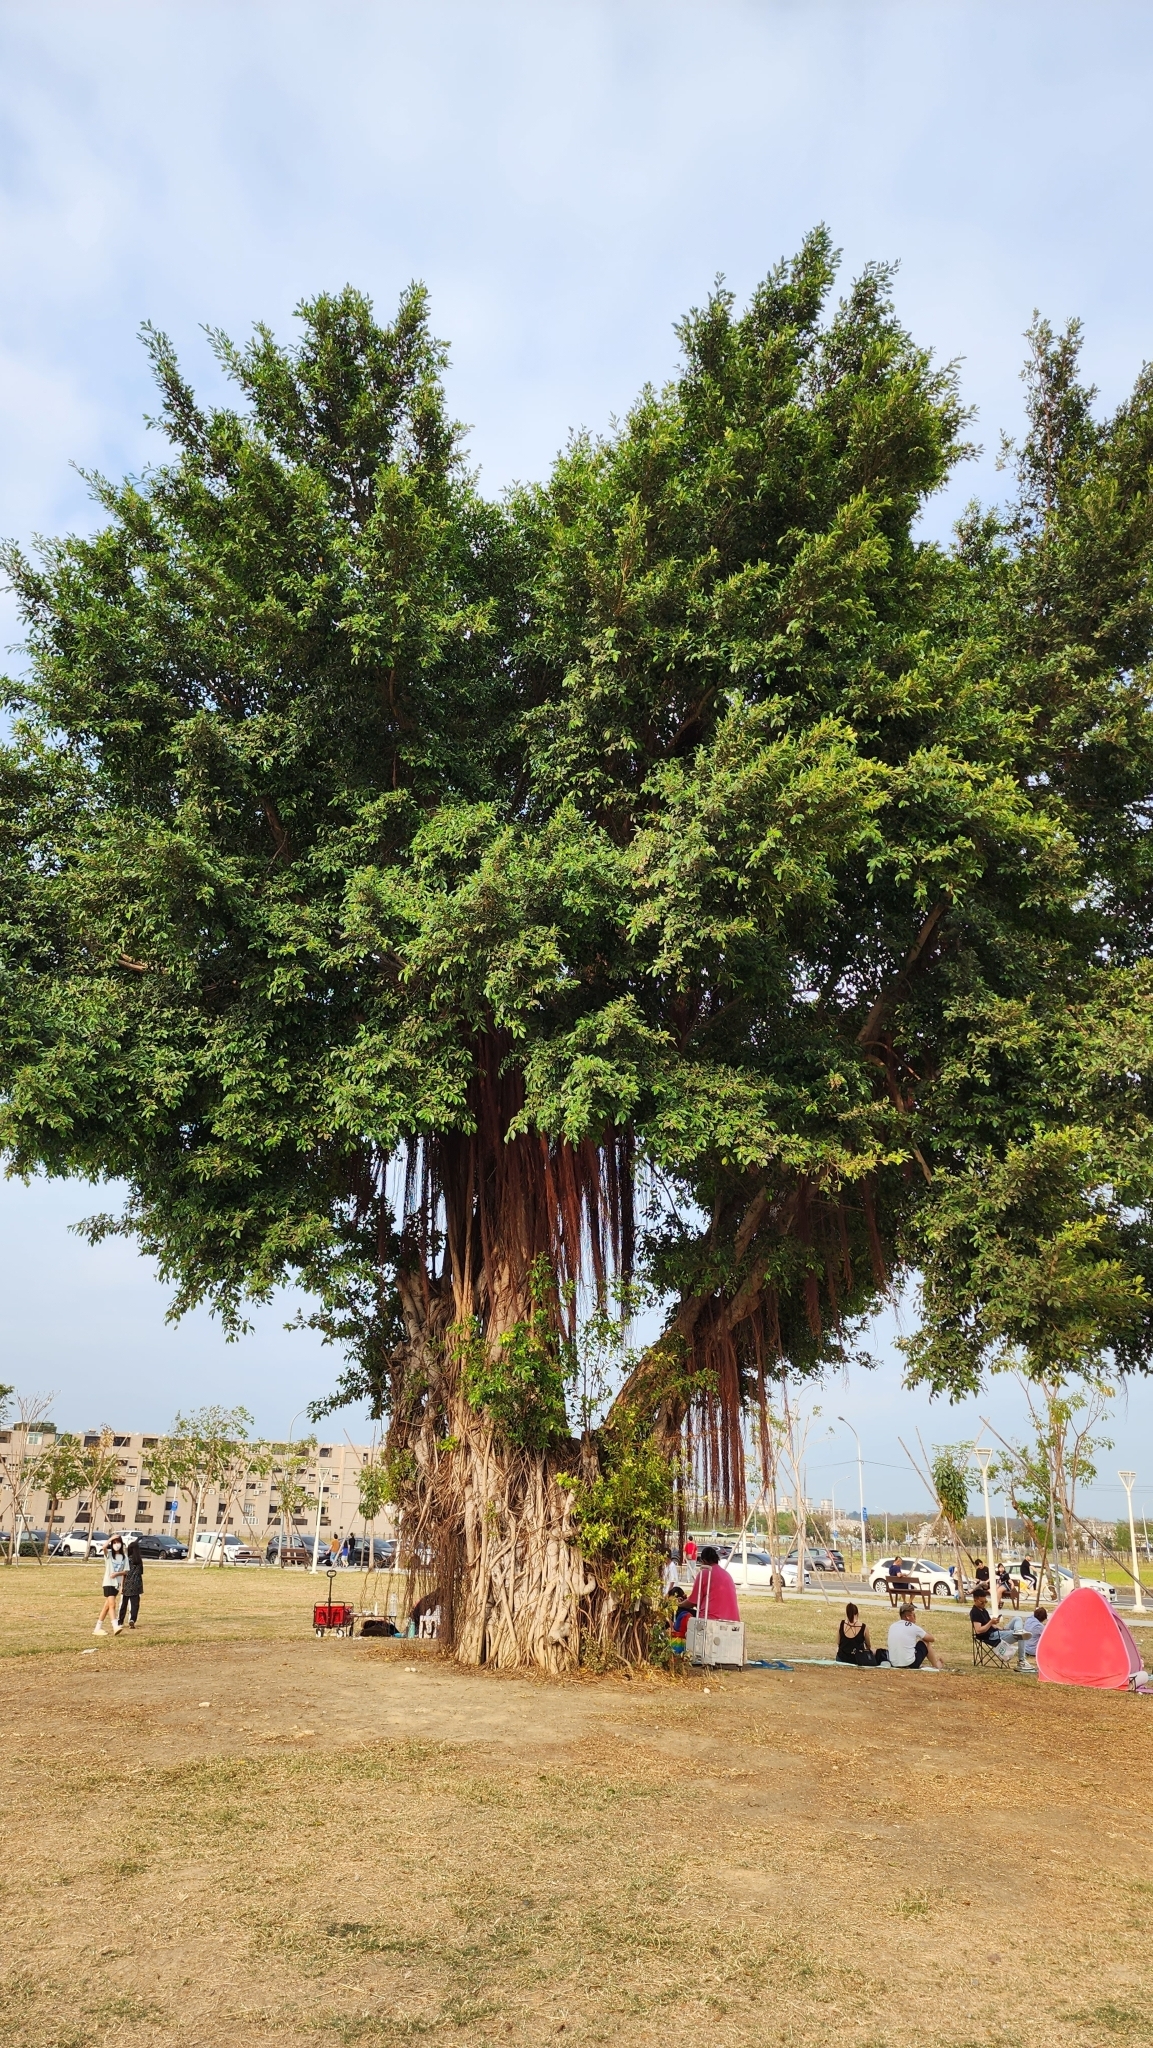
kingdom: Plantae
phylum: Tracheophyta
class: Magnoliopsida
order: Rosales
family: Moraceae
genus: Ficus
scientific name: Ficus microcarpa
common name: Chinese banyan
